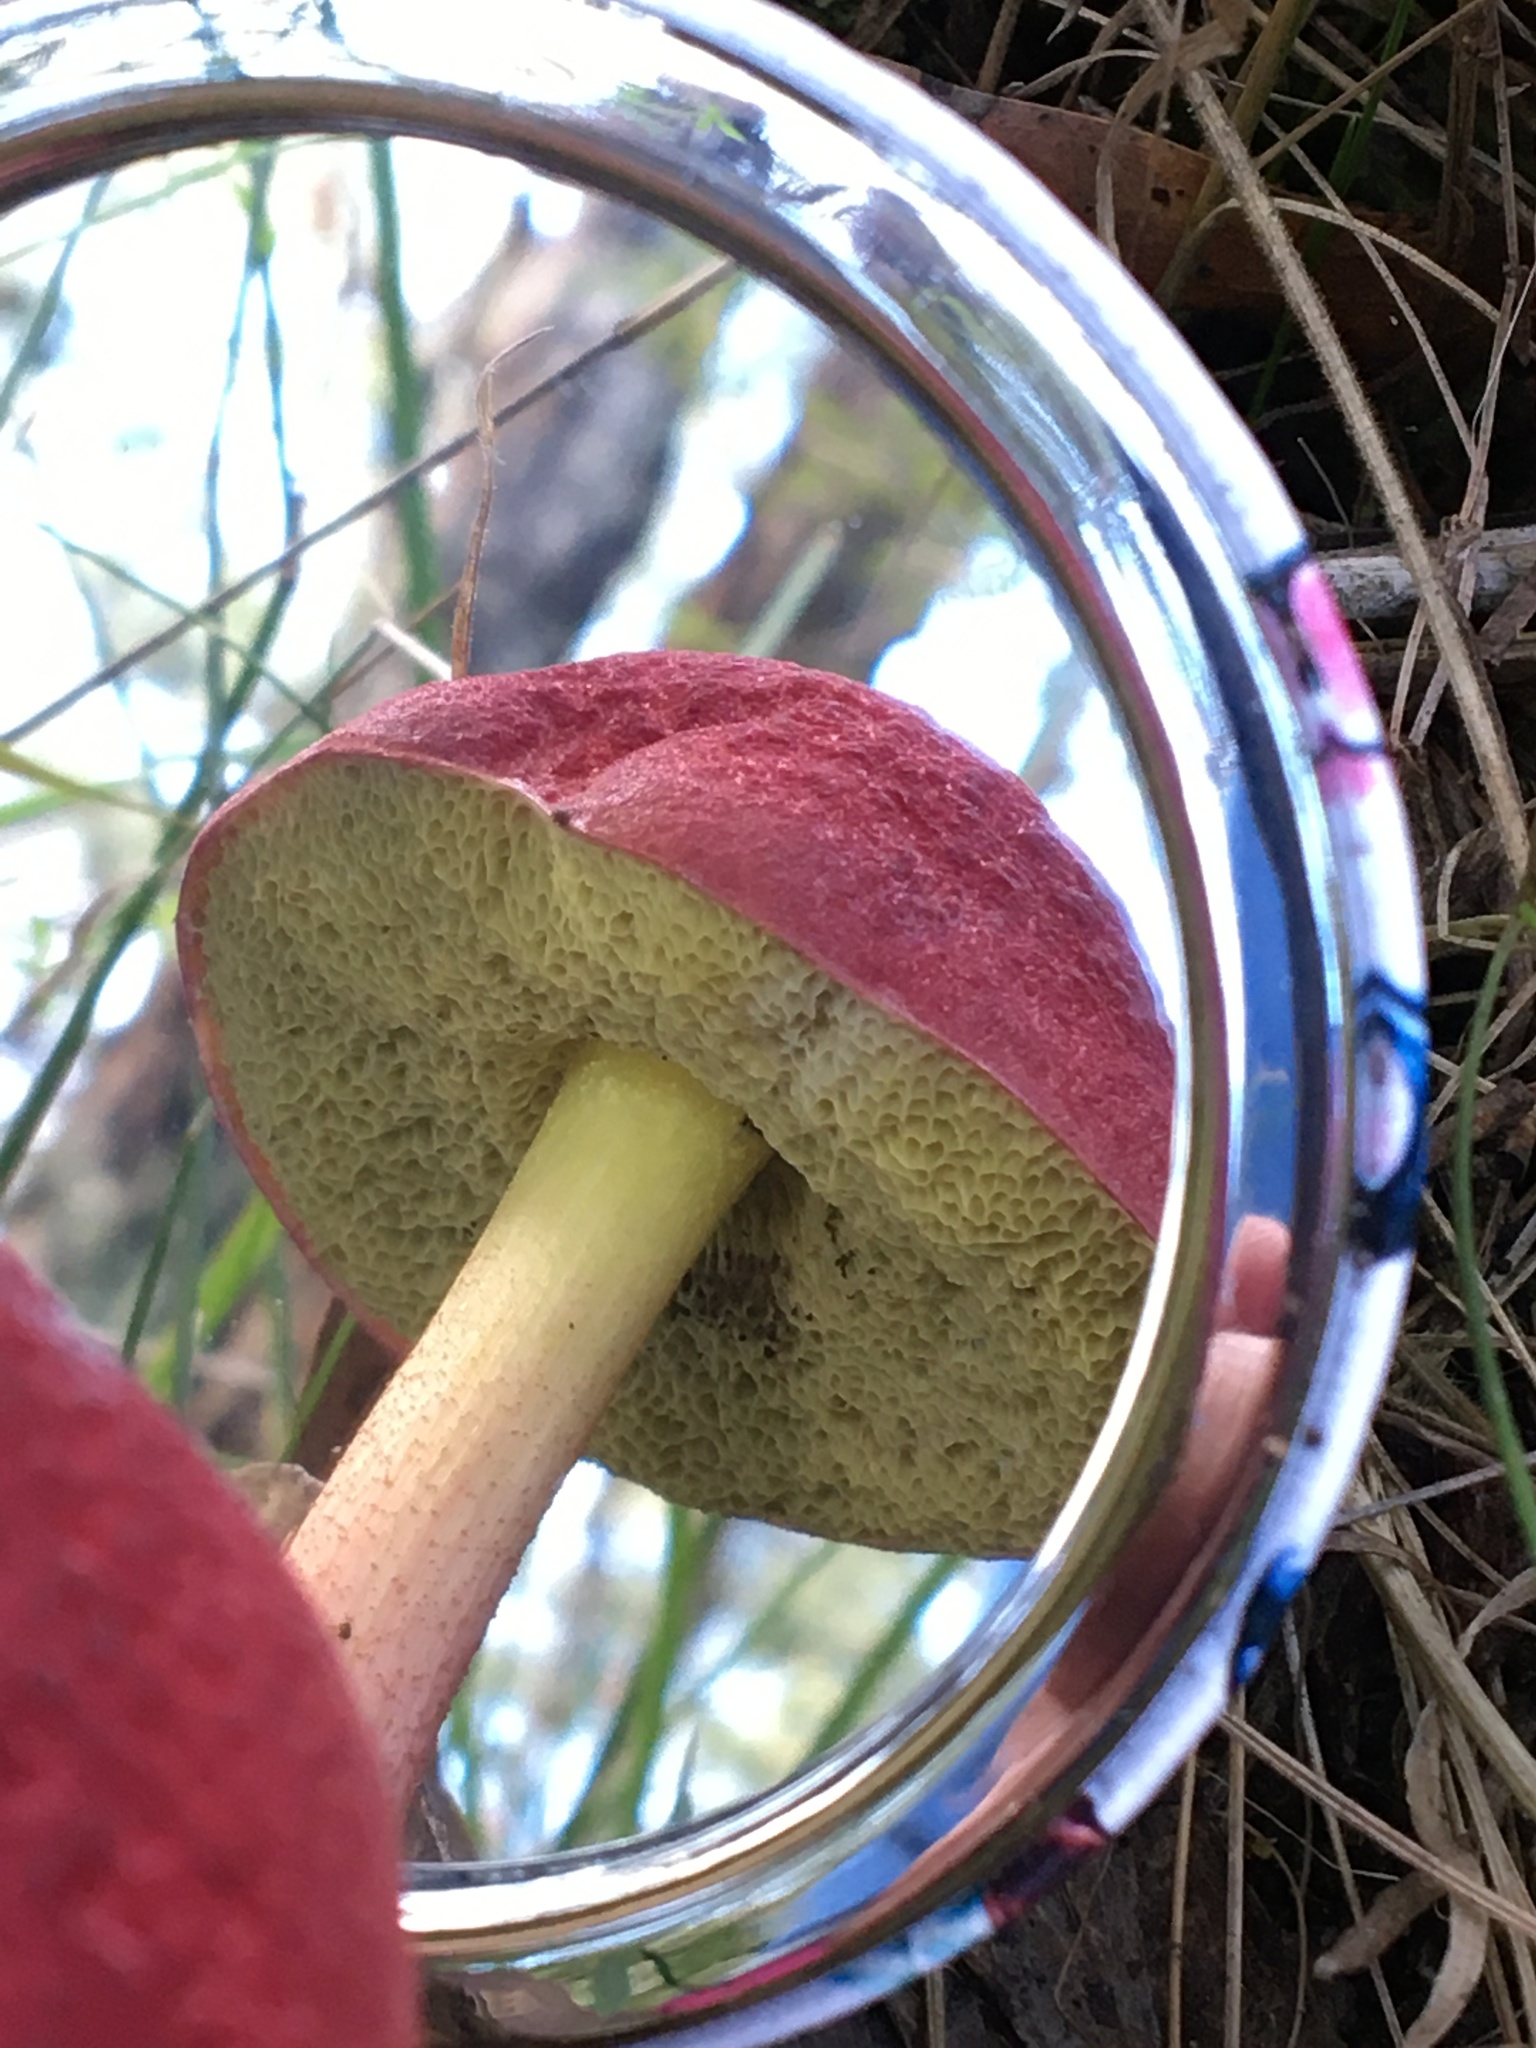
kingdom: Fungi
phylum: Basidiomycota
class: Agaricomycetes
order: Boletales
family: Boletaceae
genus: Boletellus
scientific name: Boletellus obscurecoccineus
